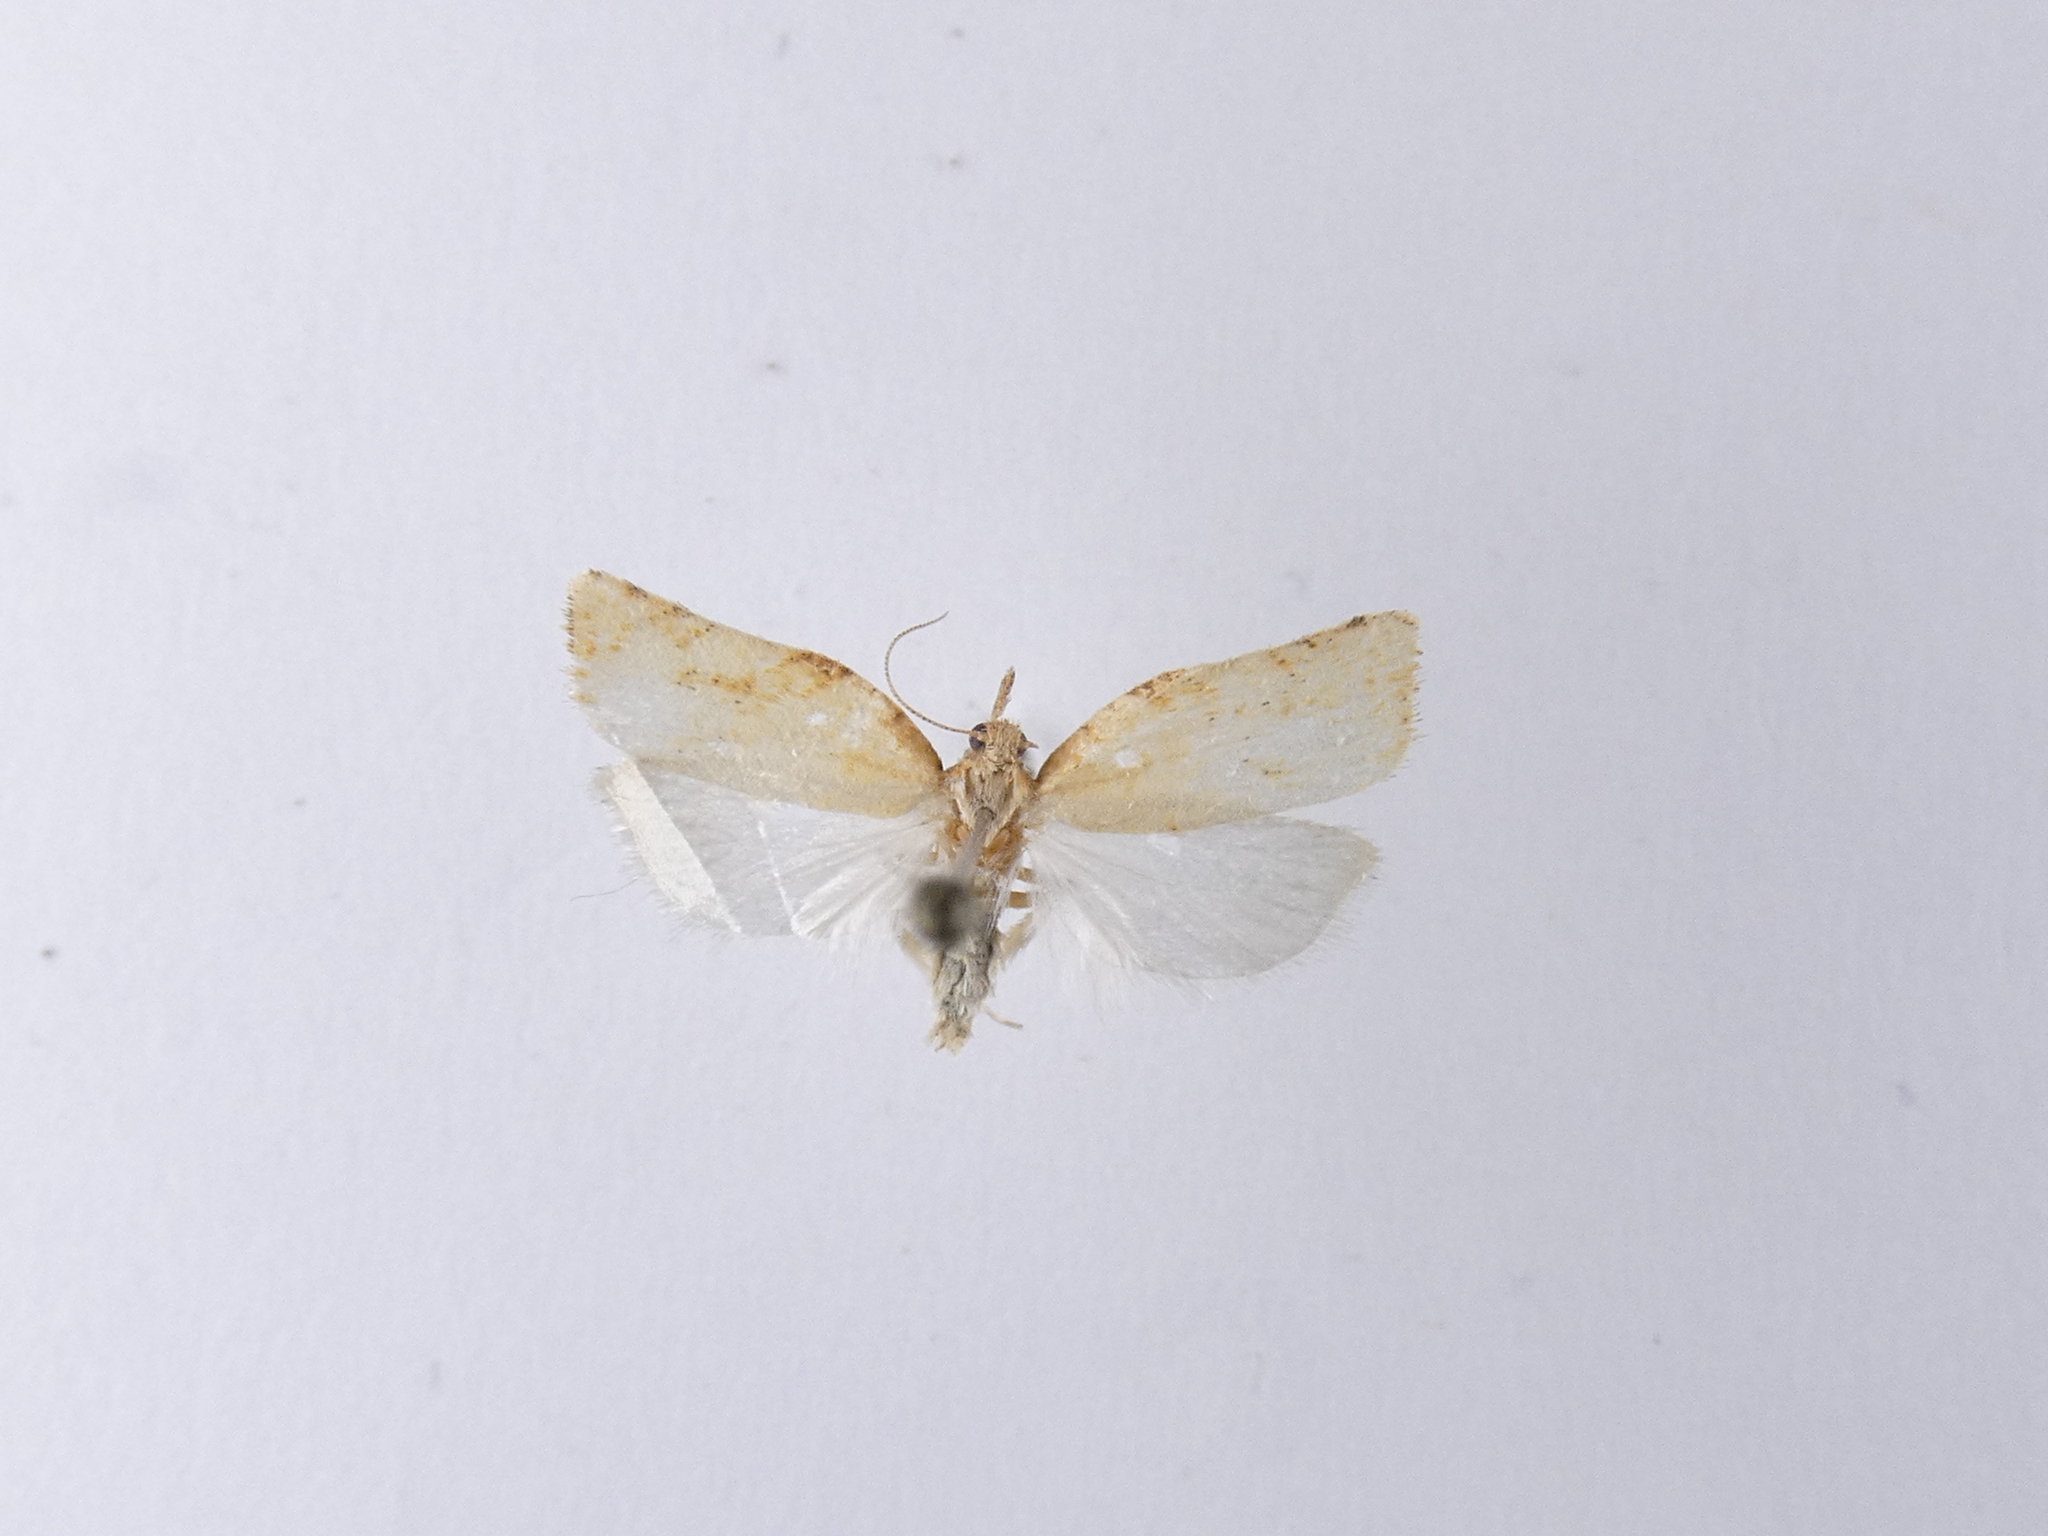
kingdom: Animalia
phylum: Arthropoda
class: Insecta
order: Lepidoptera
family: Tortricidae
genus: Catamacta
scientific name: Catamacta gavisana
